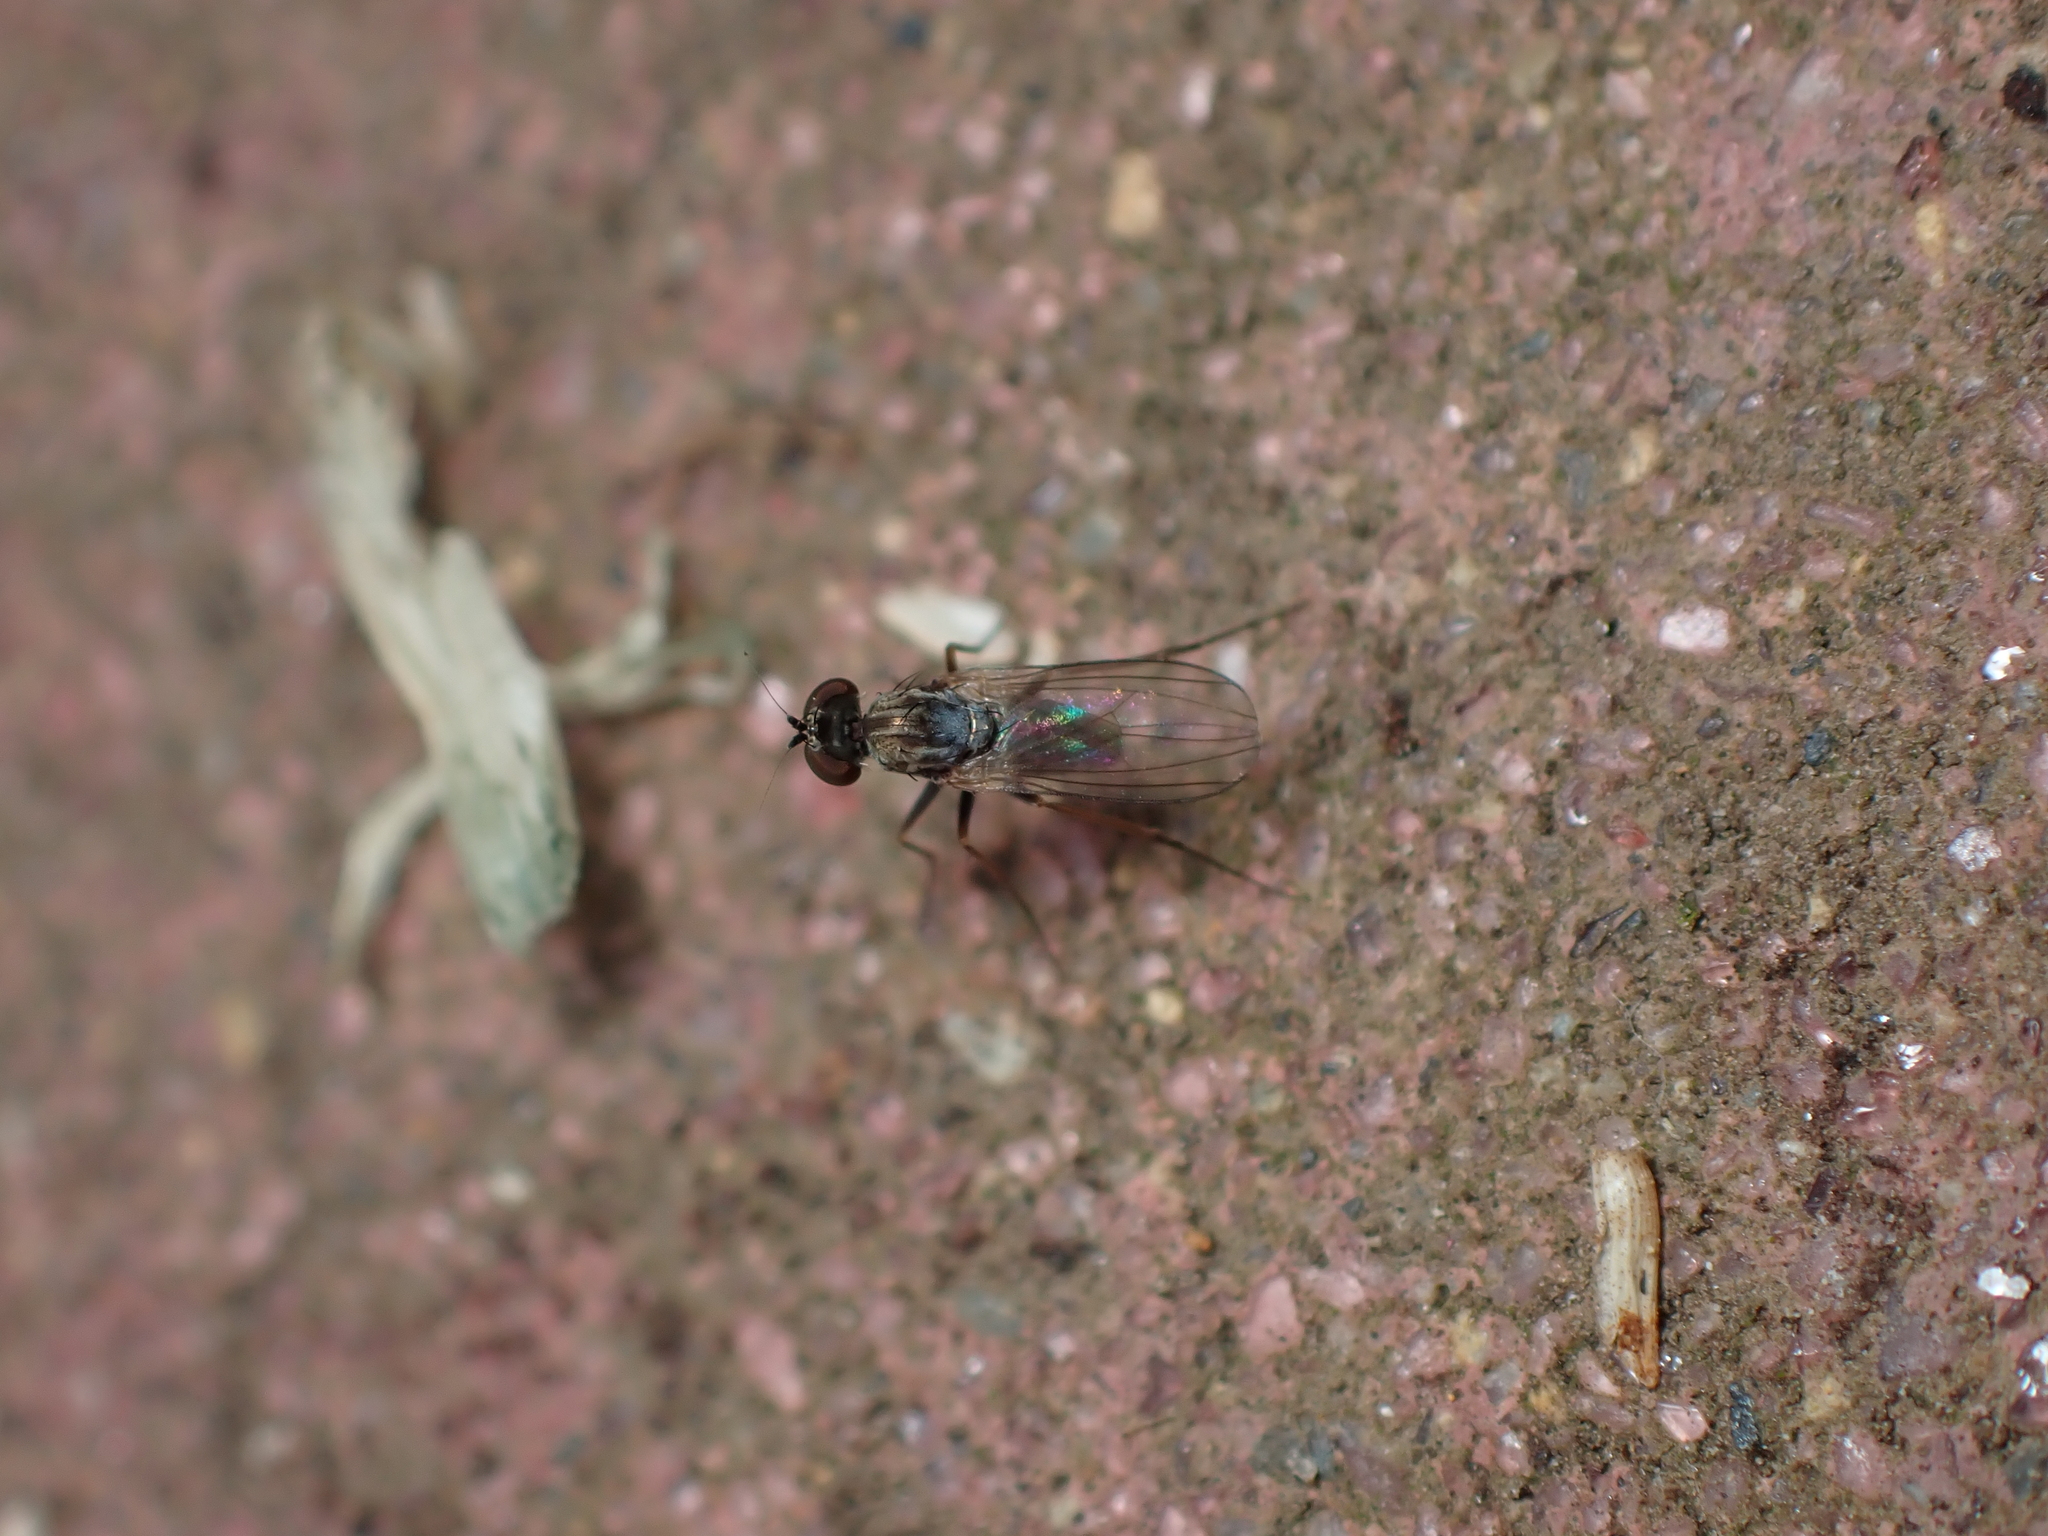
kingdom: Animalia
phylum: Arthropoda
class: Insecta
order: Diptera
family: Dolichopodidae
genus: Medetera
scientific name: Medetera grisescens
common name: Fly
